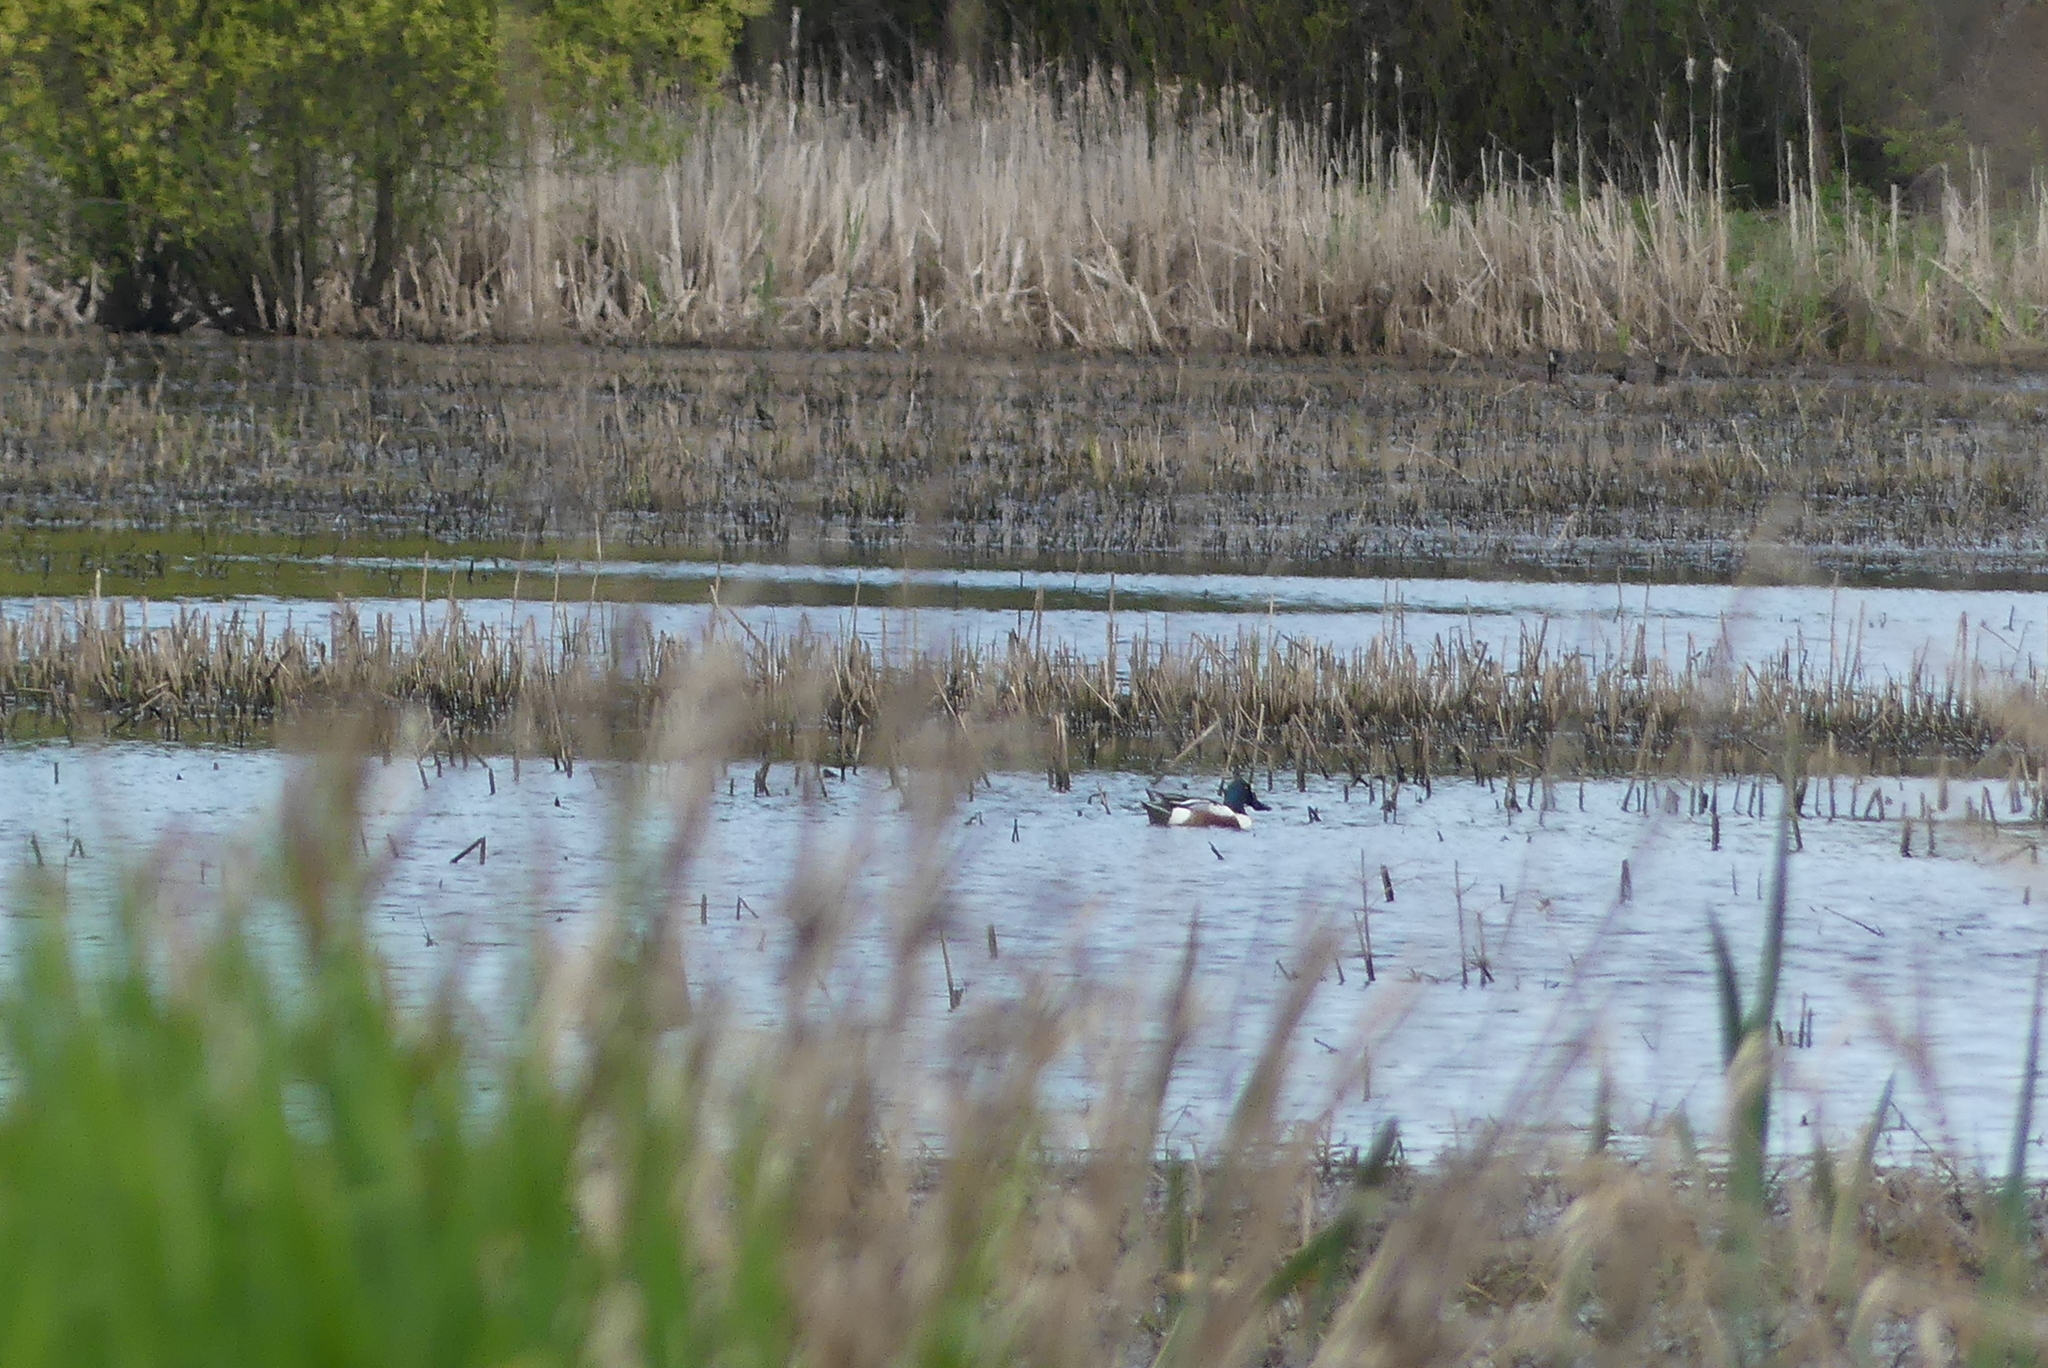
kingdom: Animalia
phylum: Chordata
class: Aves
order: Anseriformes
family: Anatidae
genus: Spatula
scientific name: Spatula clypeata
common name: Northern shoveler
